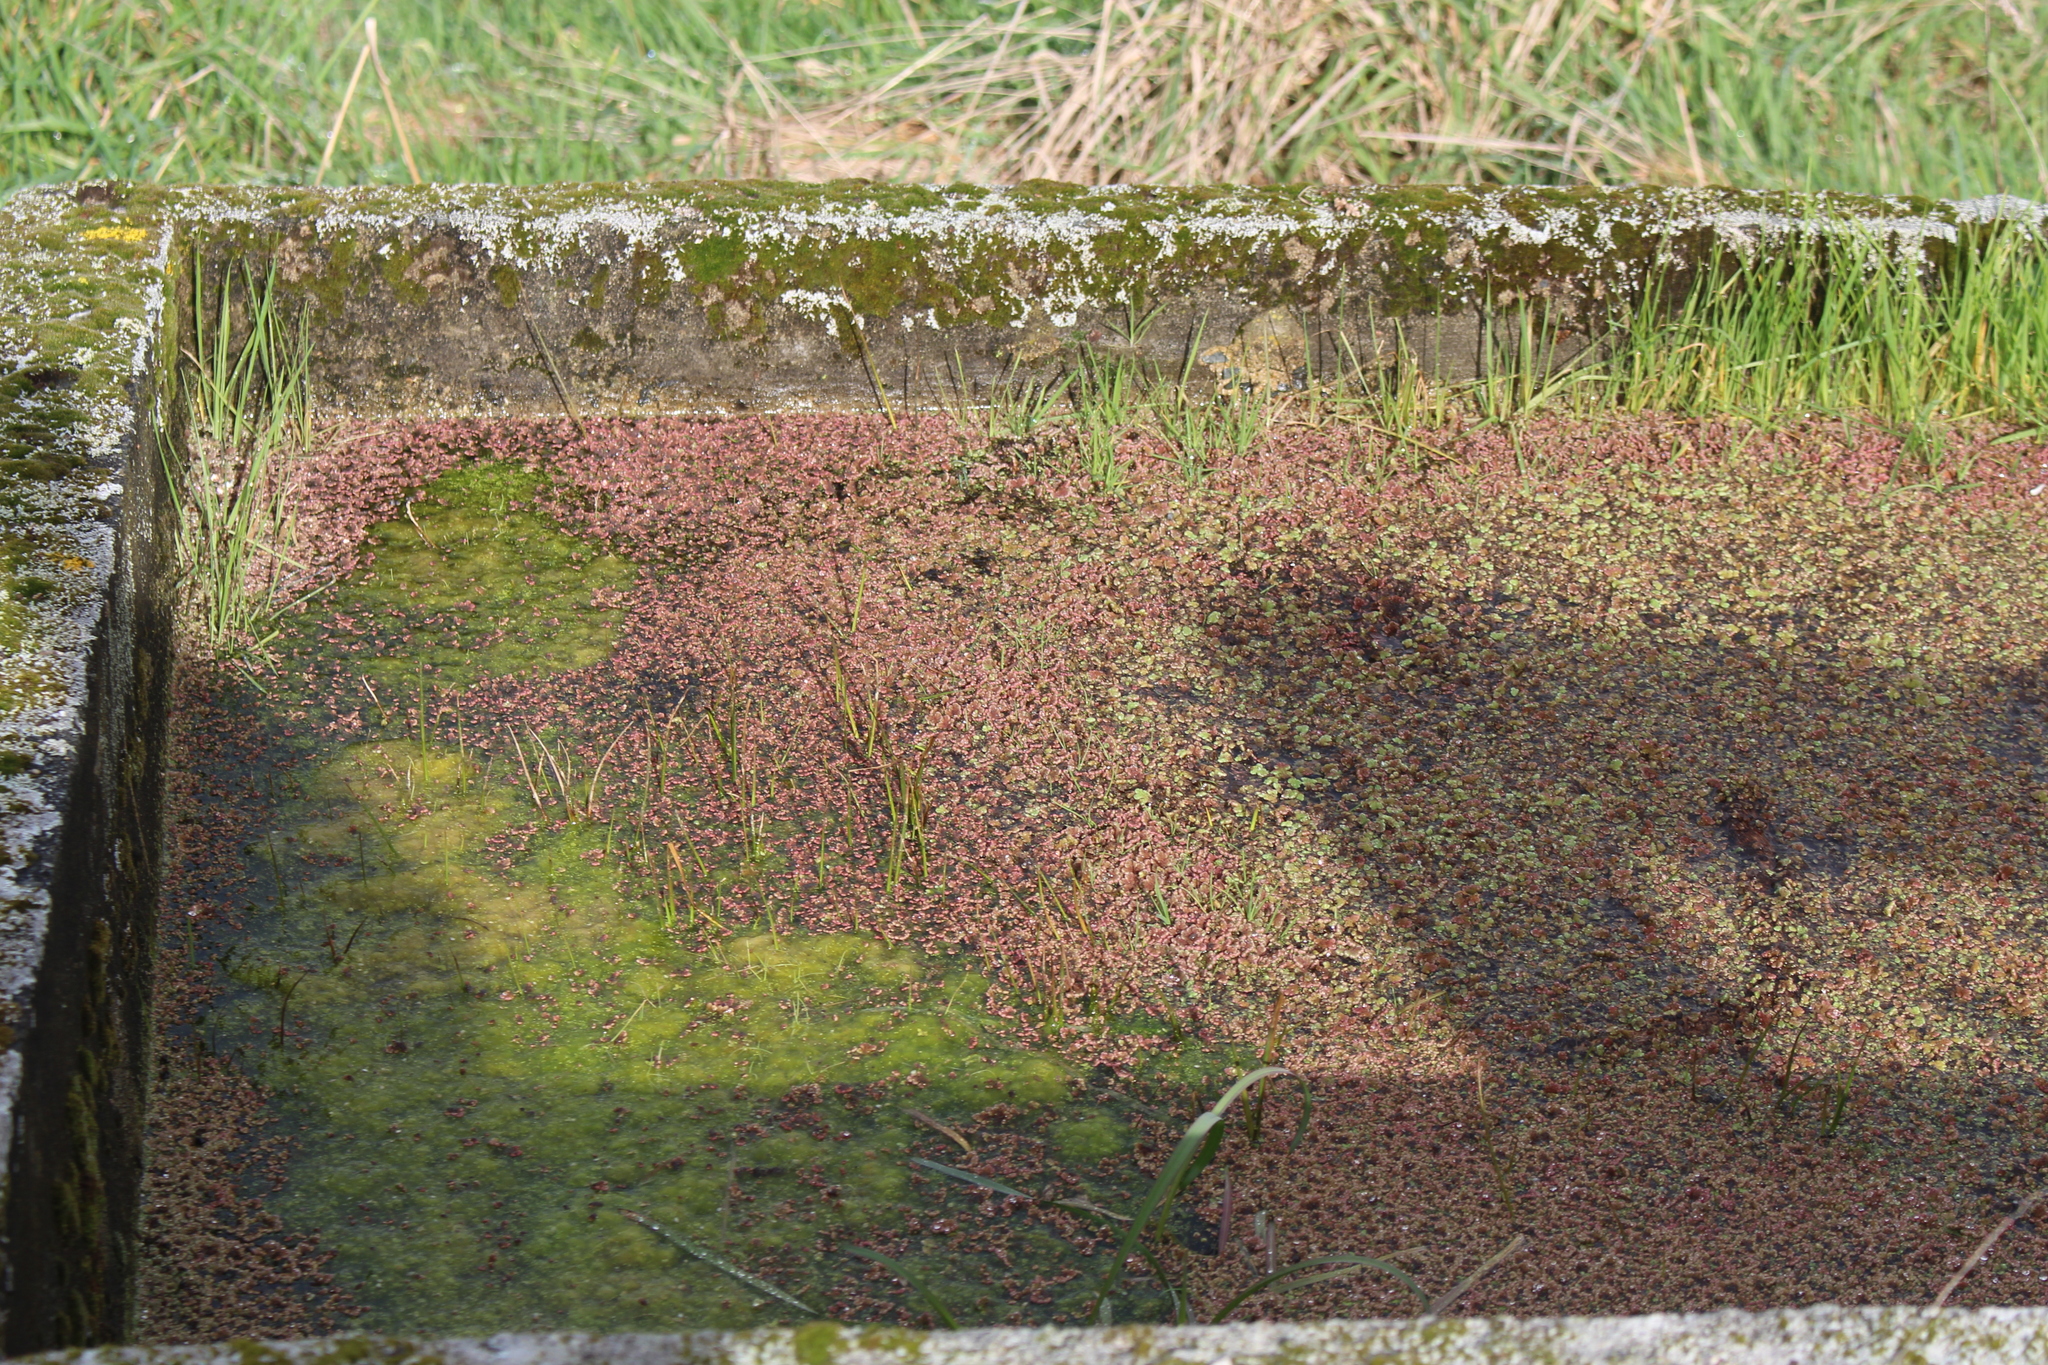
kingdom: Plantae
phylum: Tracheophyta
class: Polypodiopsida
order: Salviniales
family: Salviniaceae
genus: Azolla
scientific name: Azolla rubra
